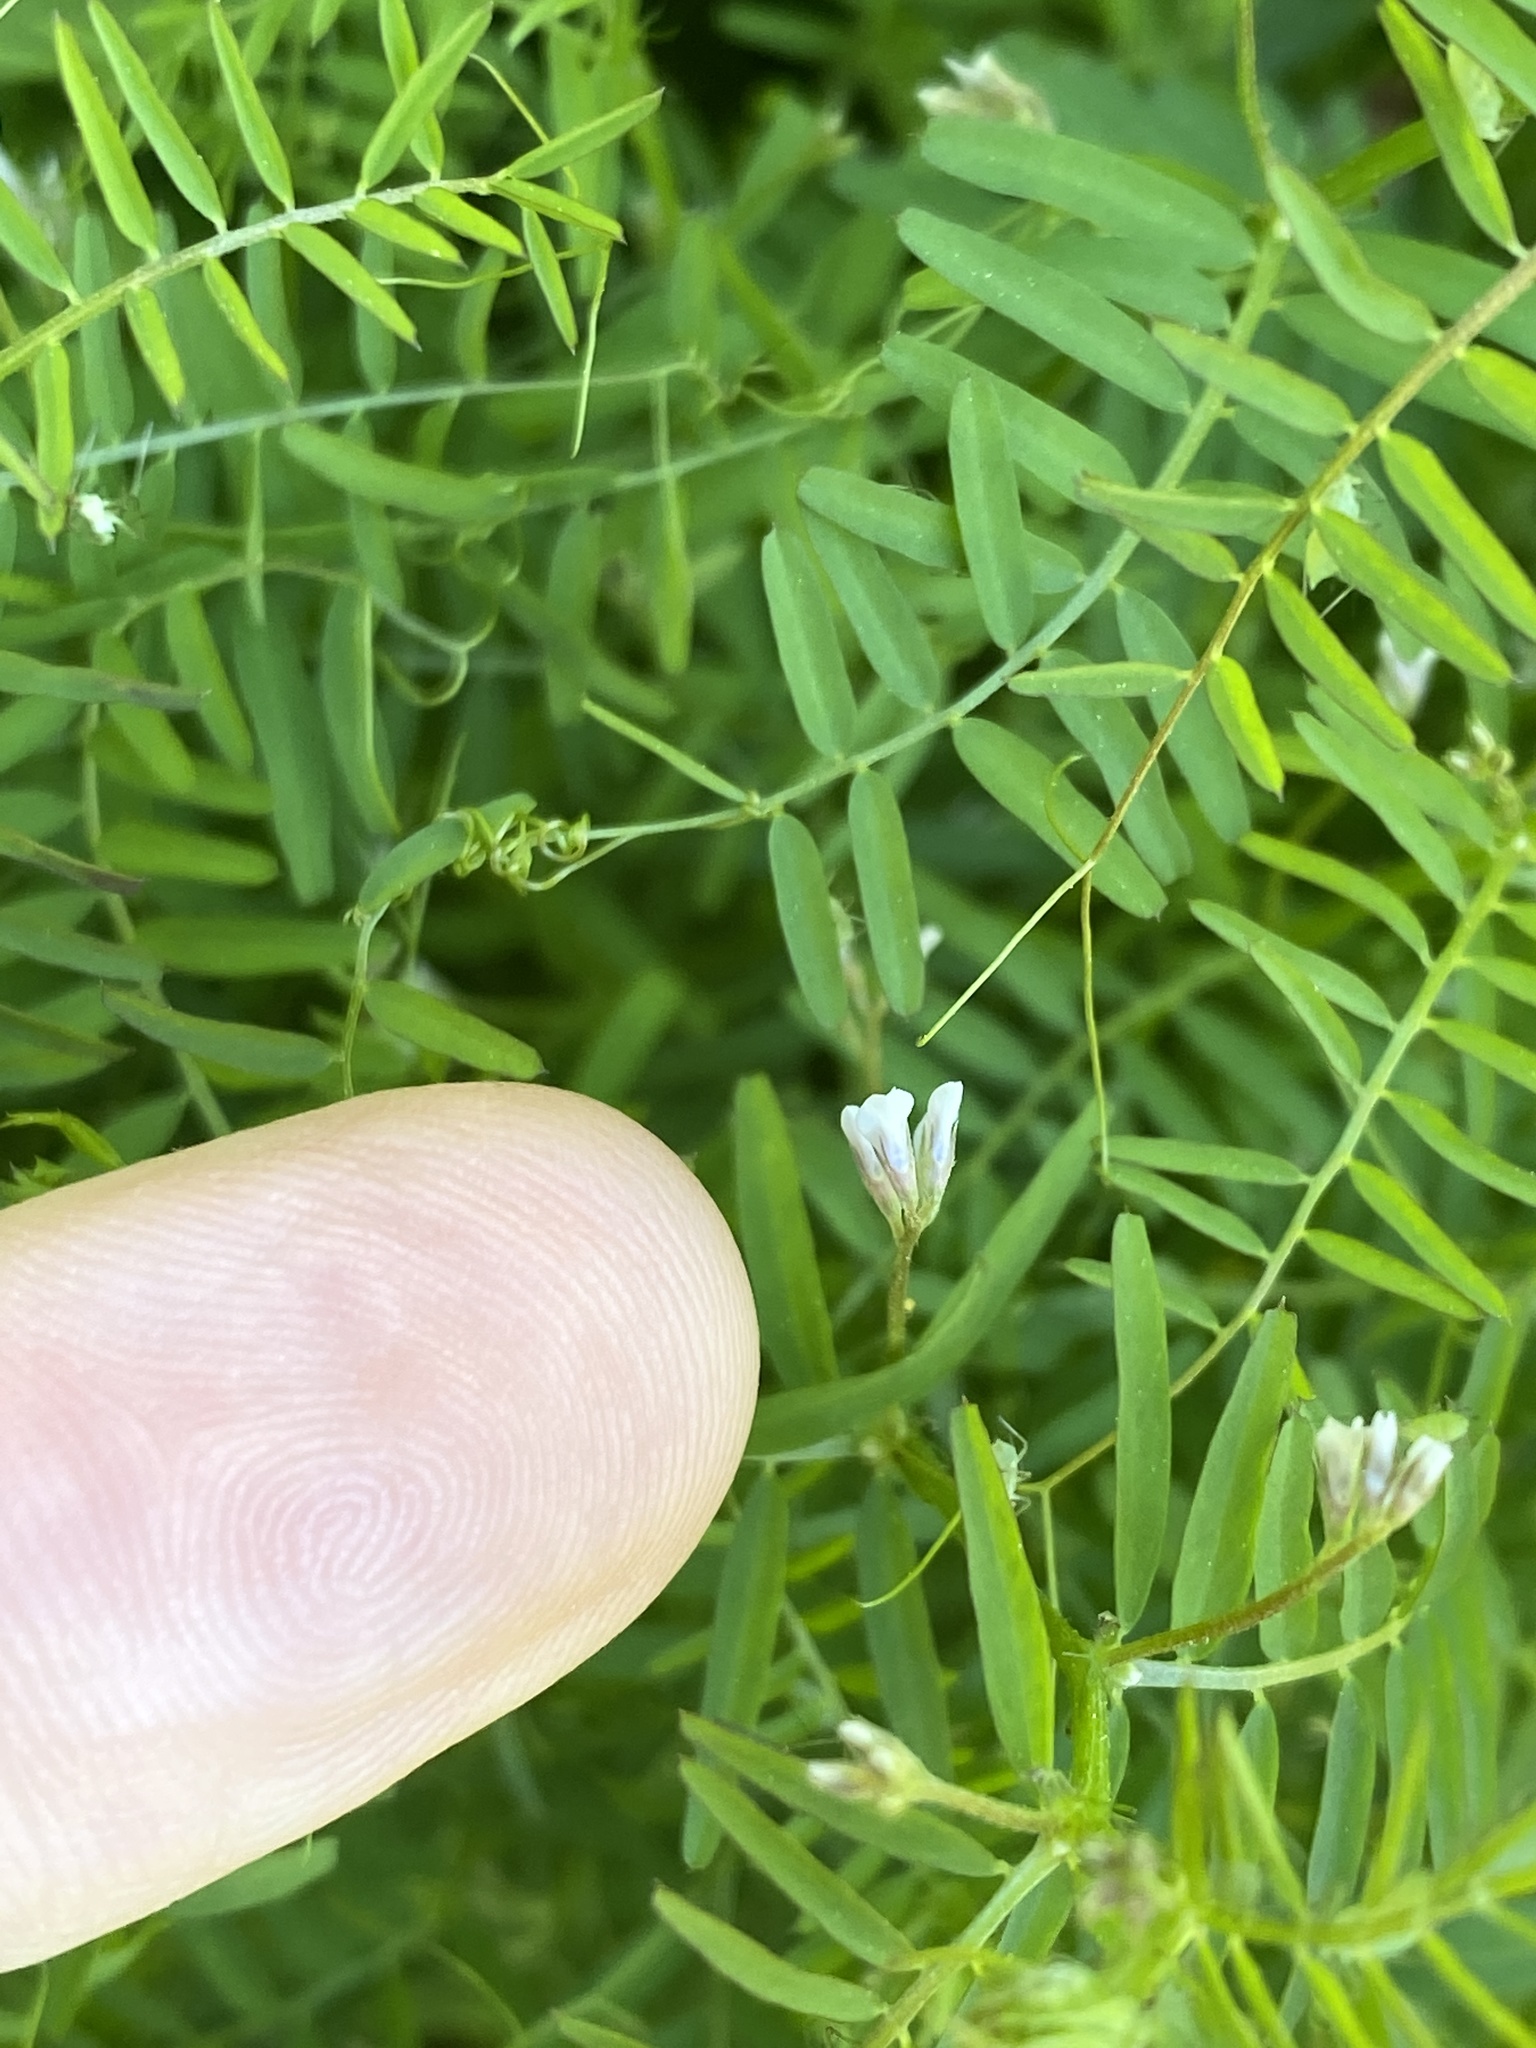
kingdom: Plantae
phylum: Tracheophyta
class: Magnoliopsida
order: Fabales
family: Fabaceae
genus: Vicia
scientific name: Vicia hirsuta
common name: Tiny vetch
